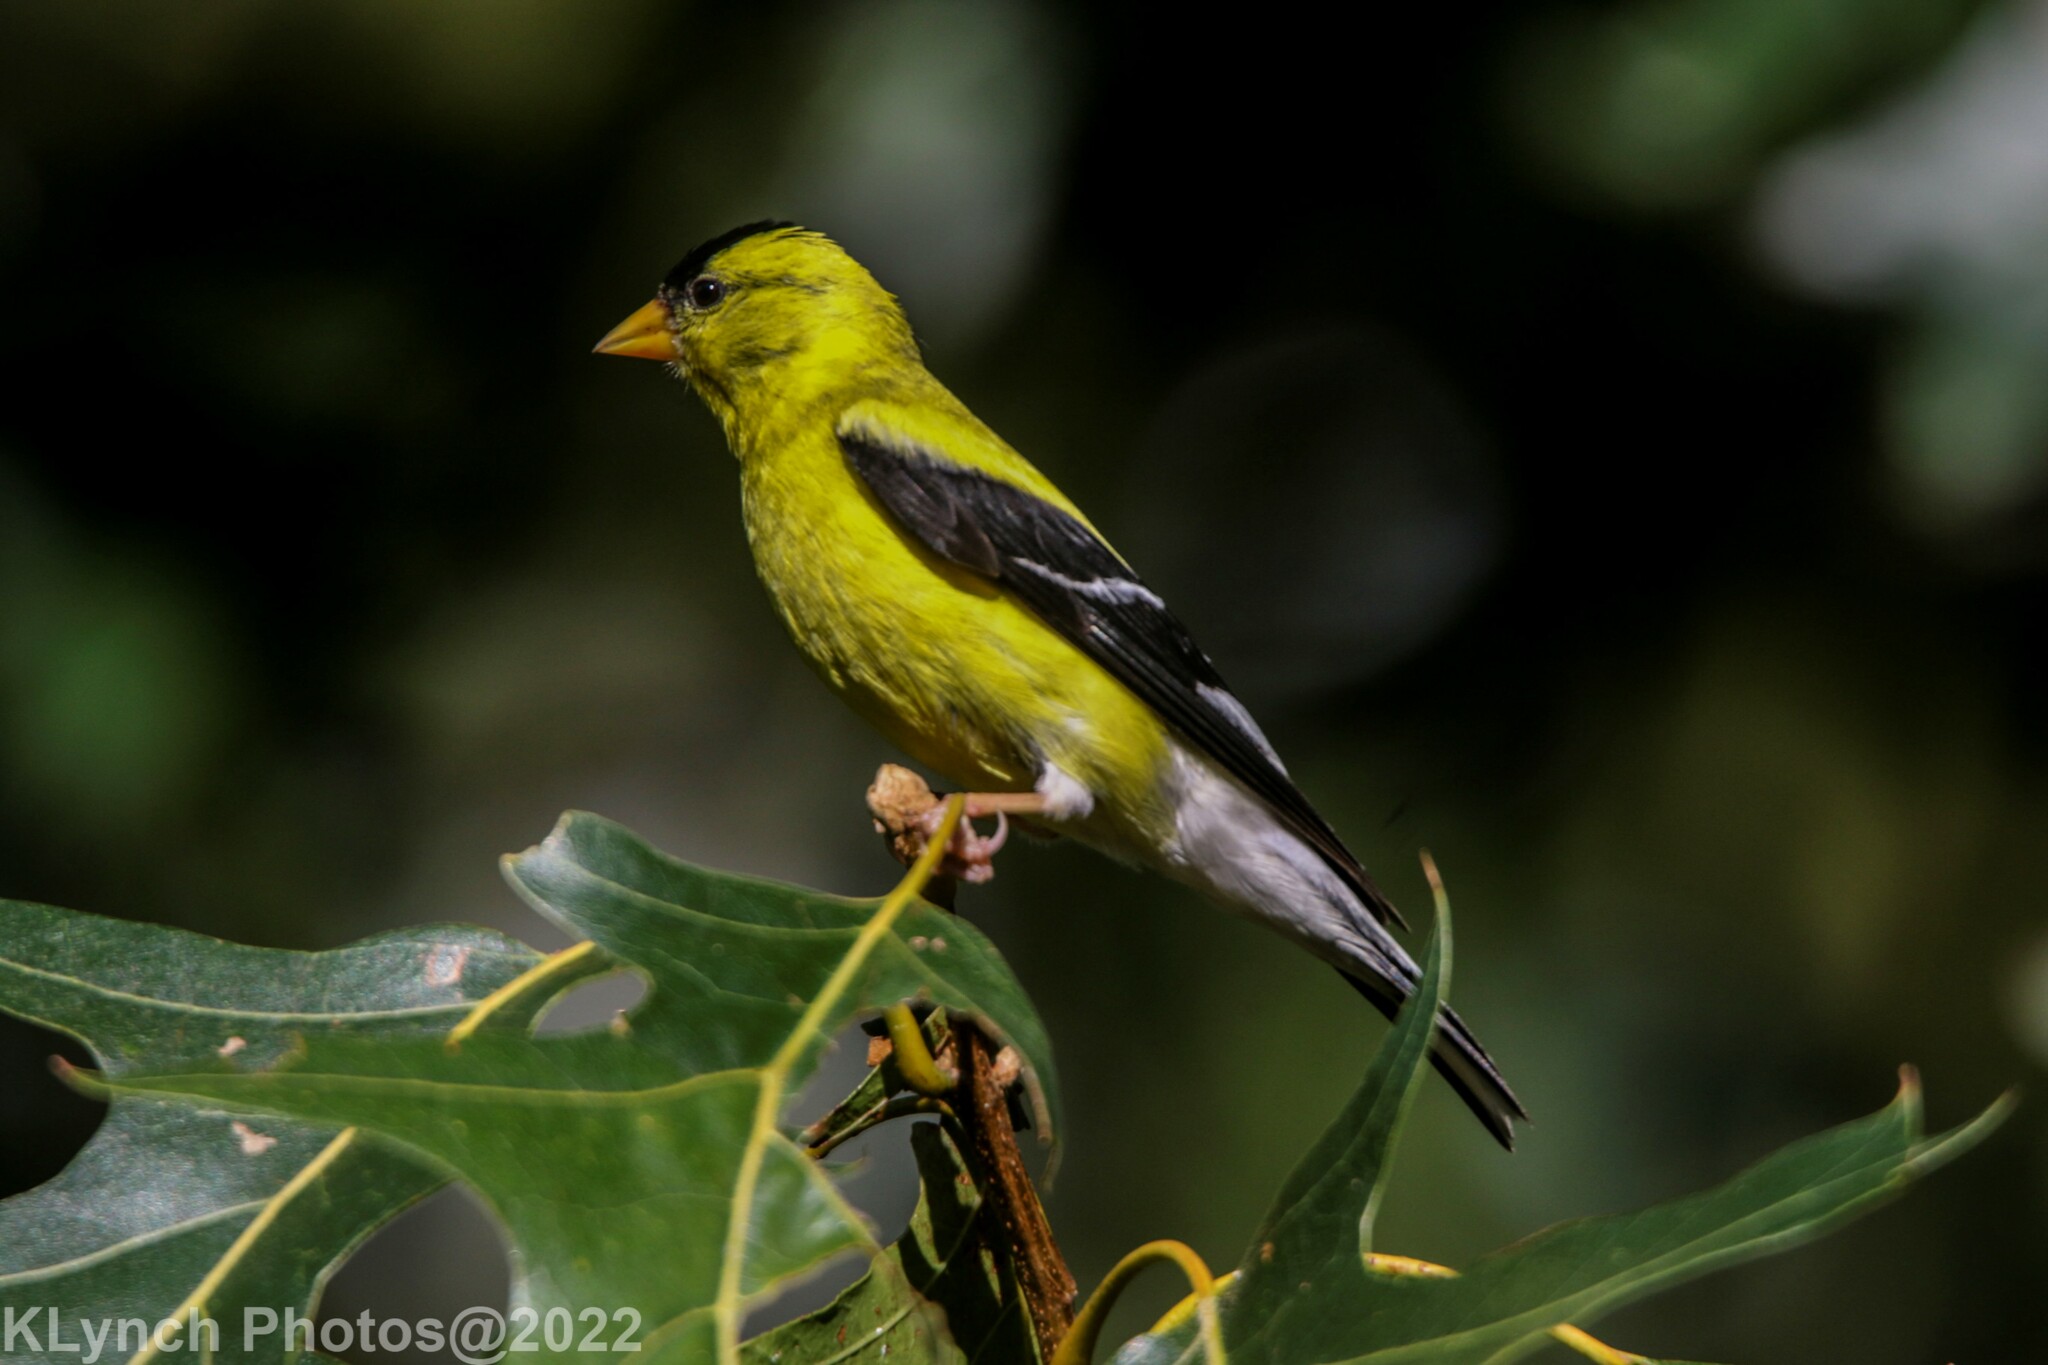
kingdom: Animalia
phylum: Chordata
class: Aves
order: Passeriformes
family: Fringillidae
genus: Spinus
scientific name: Spinus tristis
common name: American goldfinch
